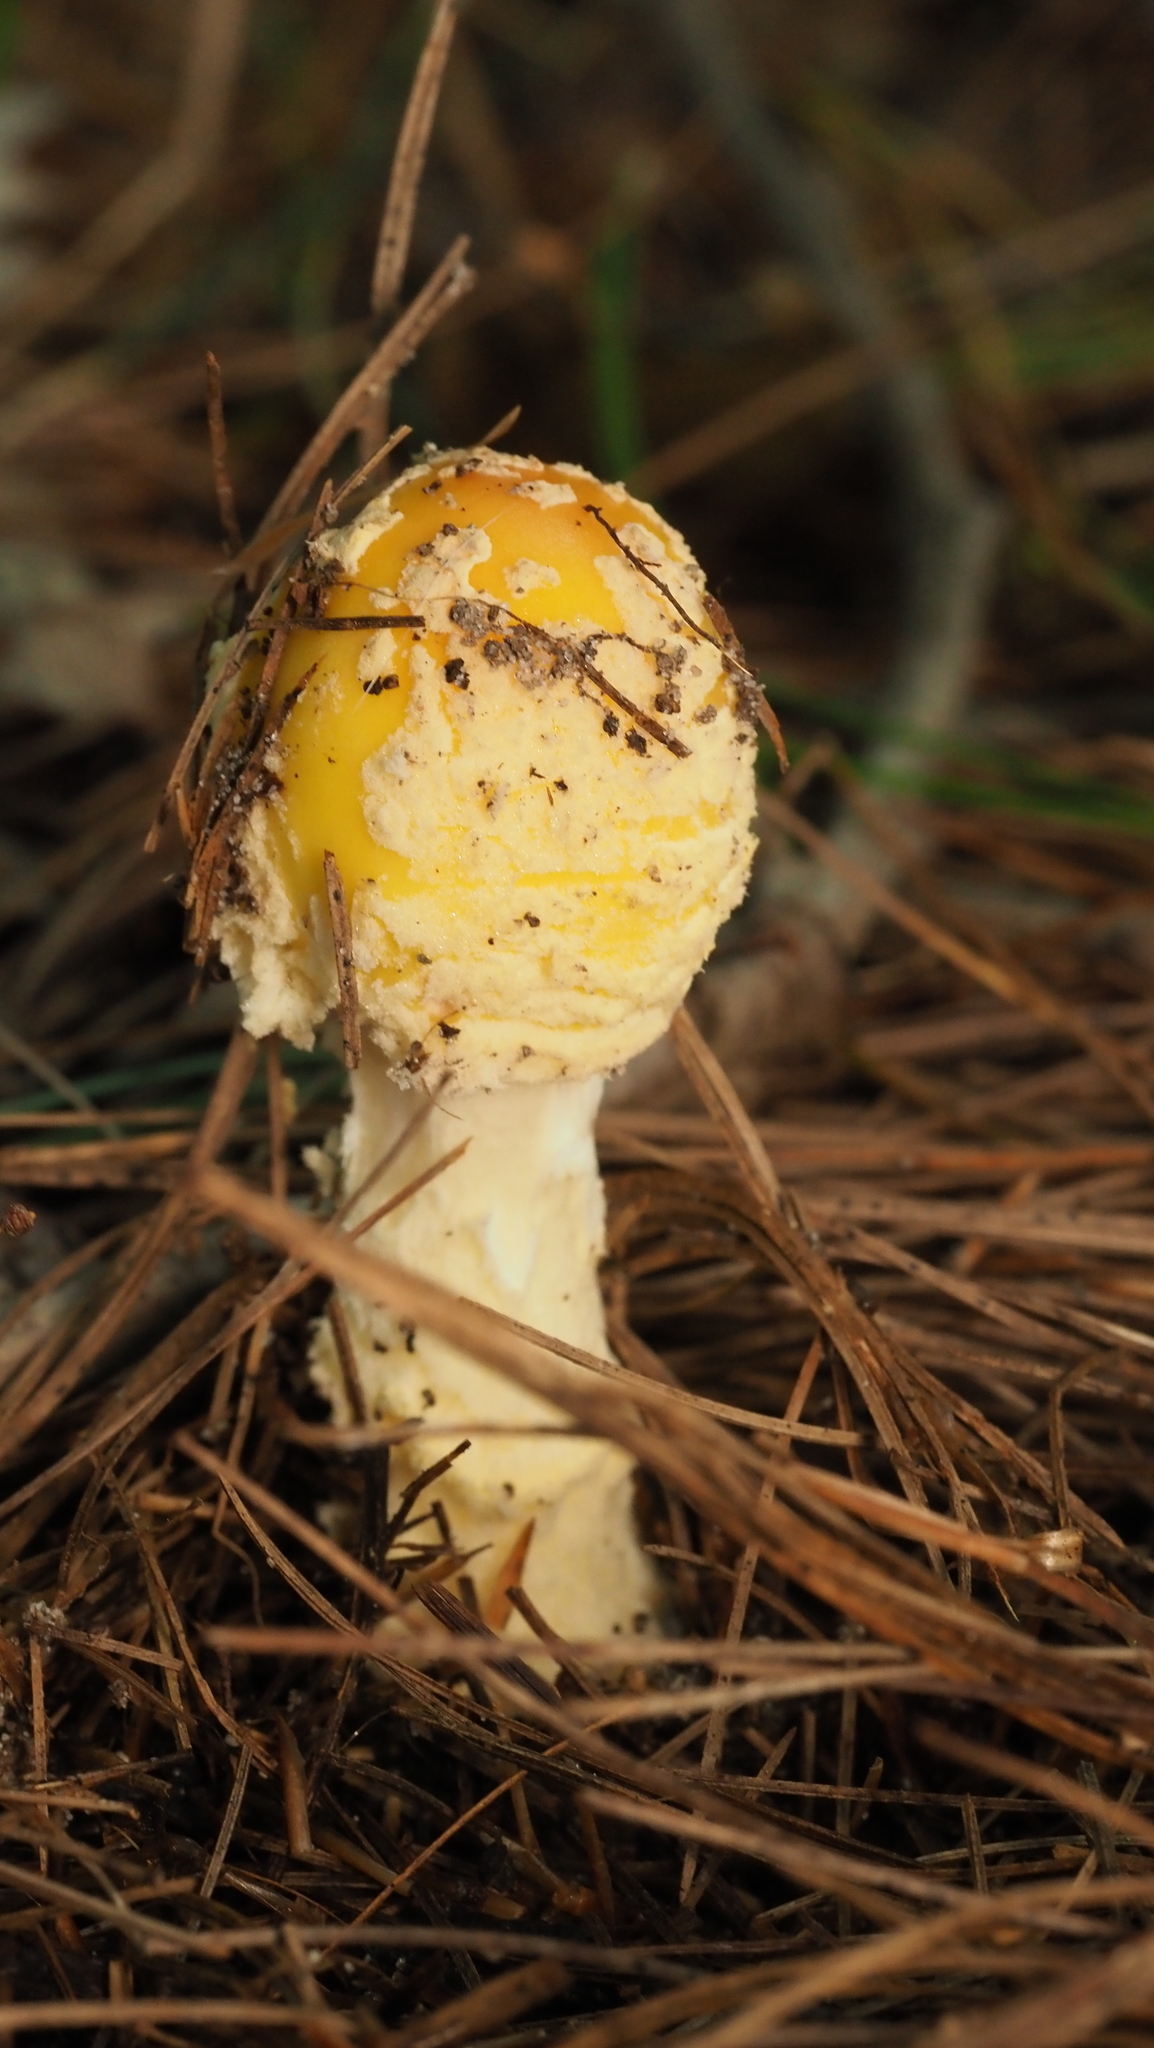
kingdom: Fungi
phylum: Basidiomycota
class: Agaricomycetes
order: Agaricales
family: Amanitaceae
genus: Amanita
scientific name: Amanita muscaria
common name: Fly agaric
